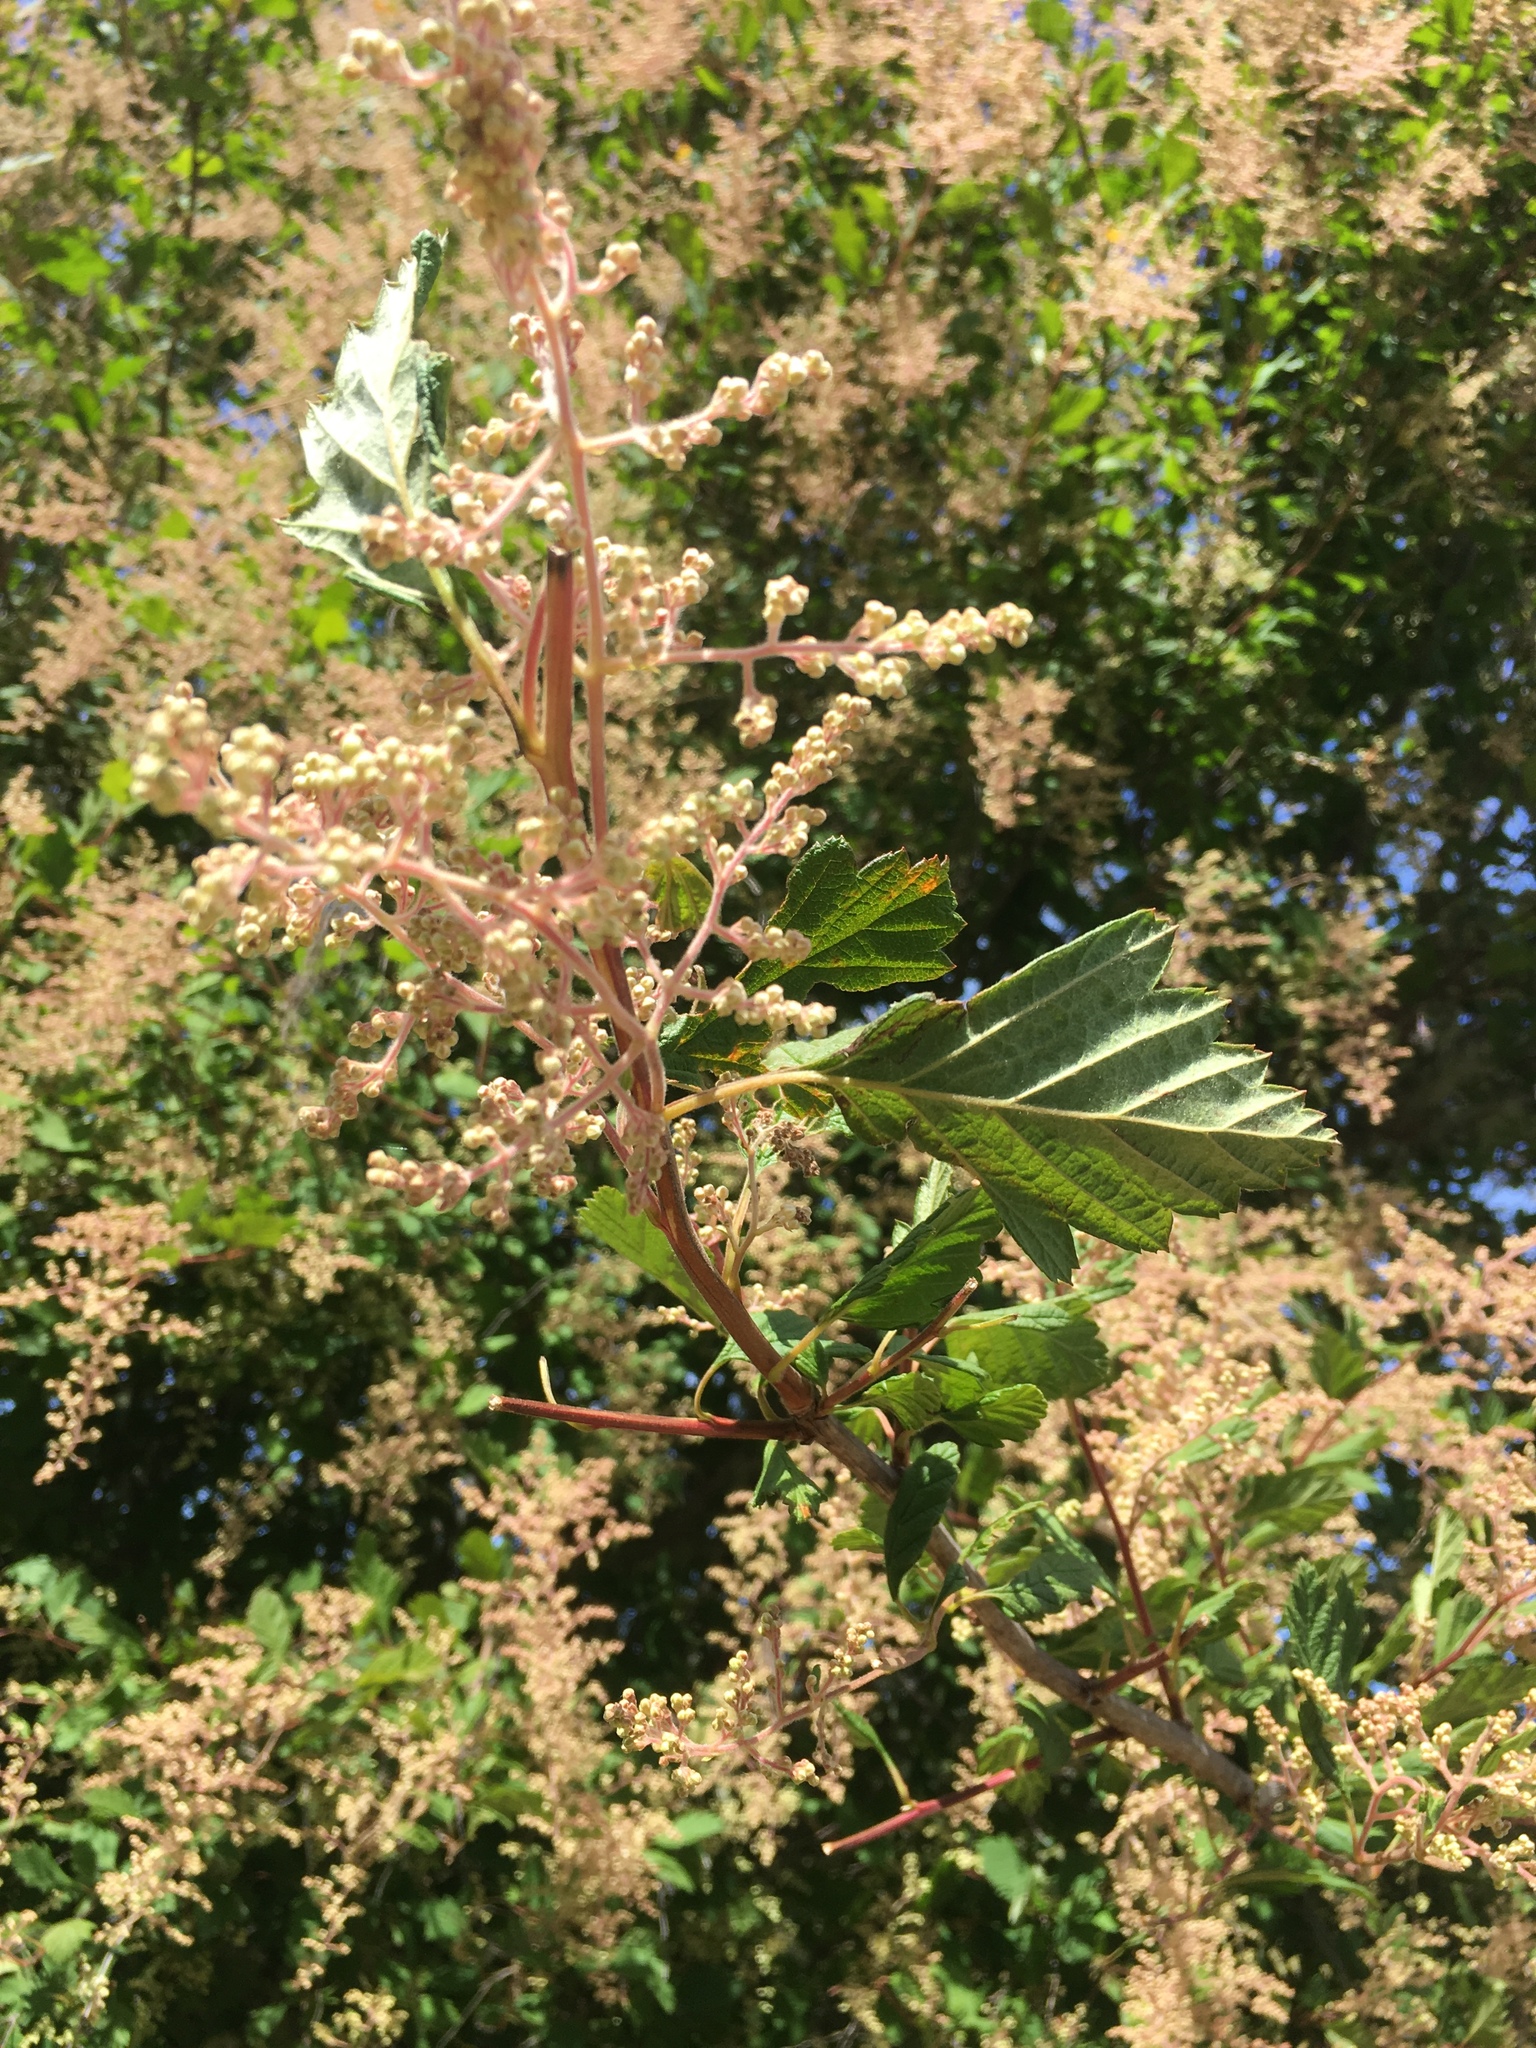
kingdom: Plantae
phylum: Tracheophyta
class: Magnoliopsida
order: Rosales
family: Rosaceae
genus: Holodiscus
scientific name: Holodiscus discolor
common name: Oceanspray
